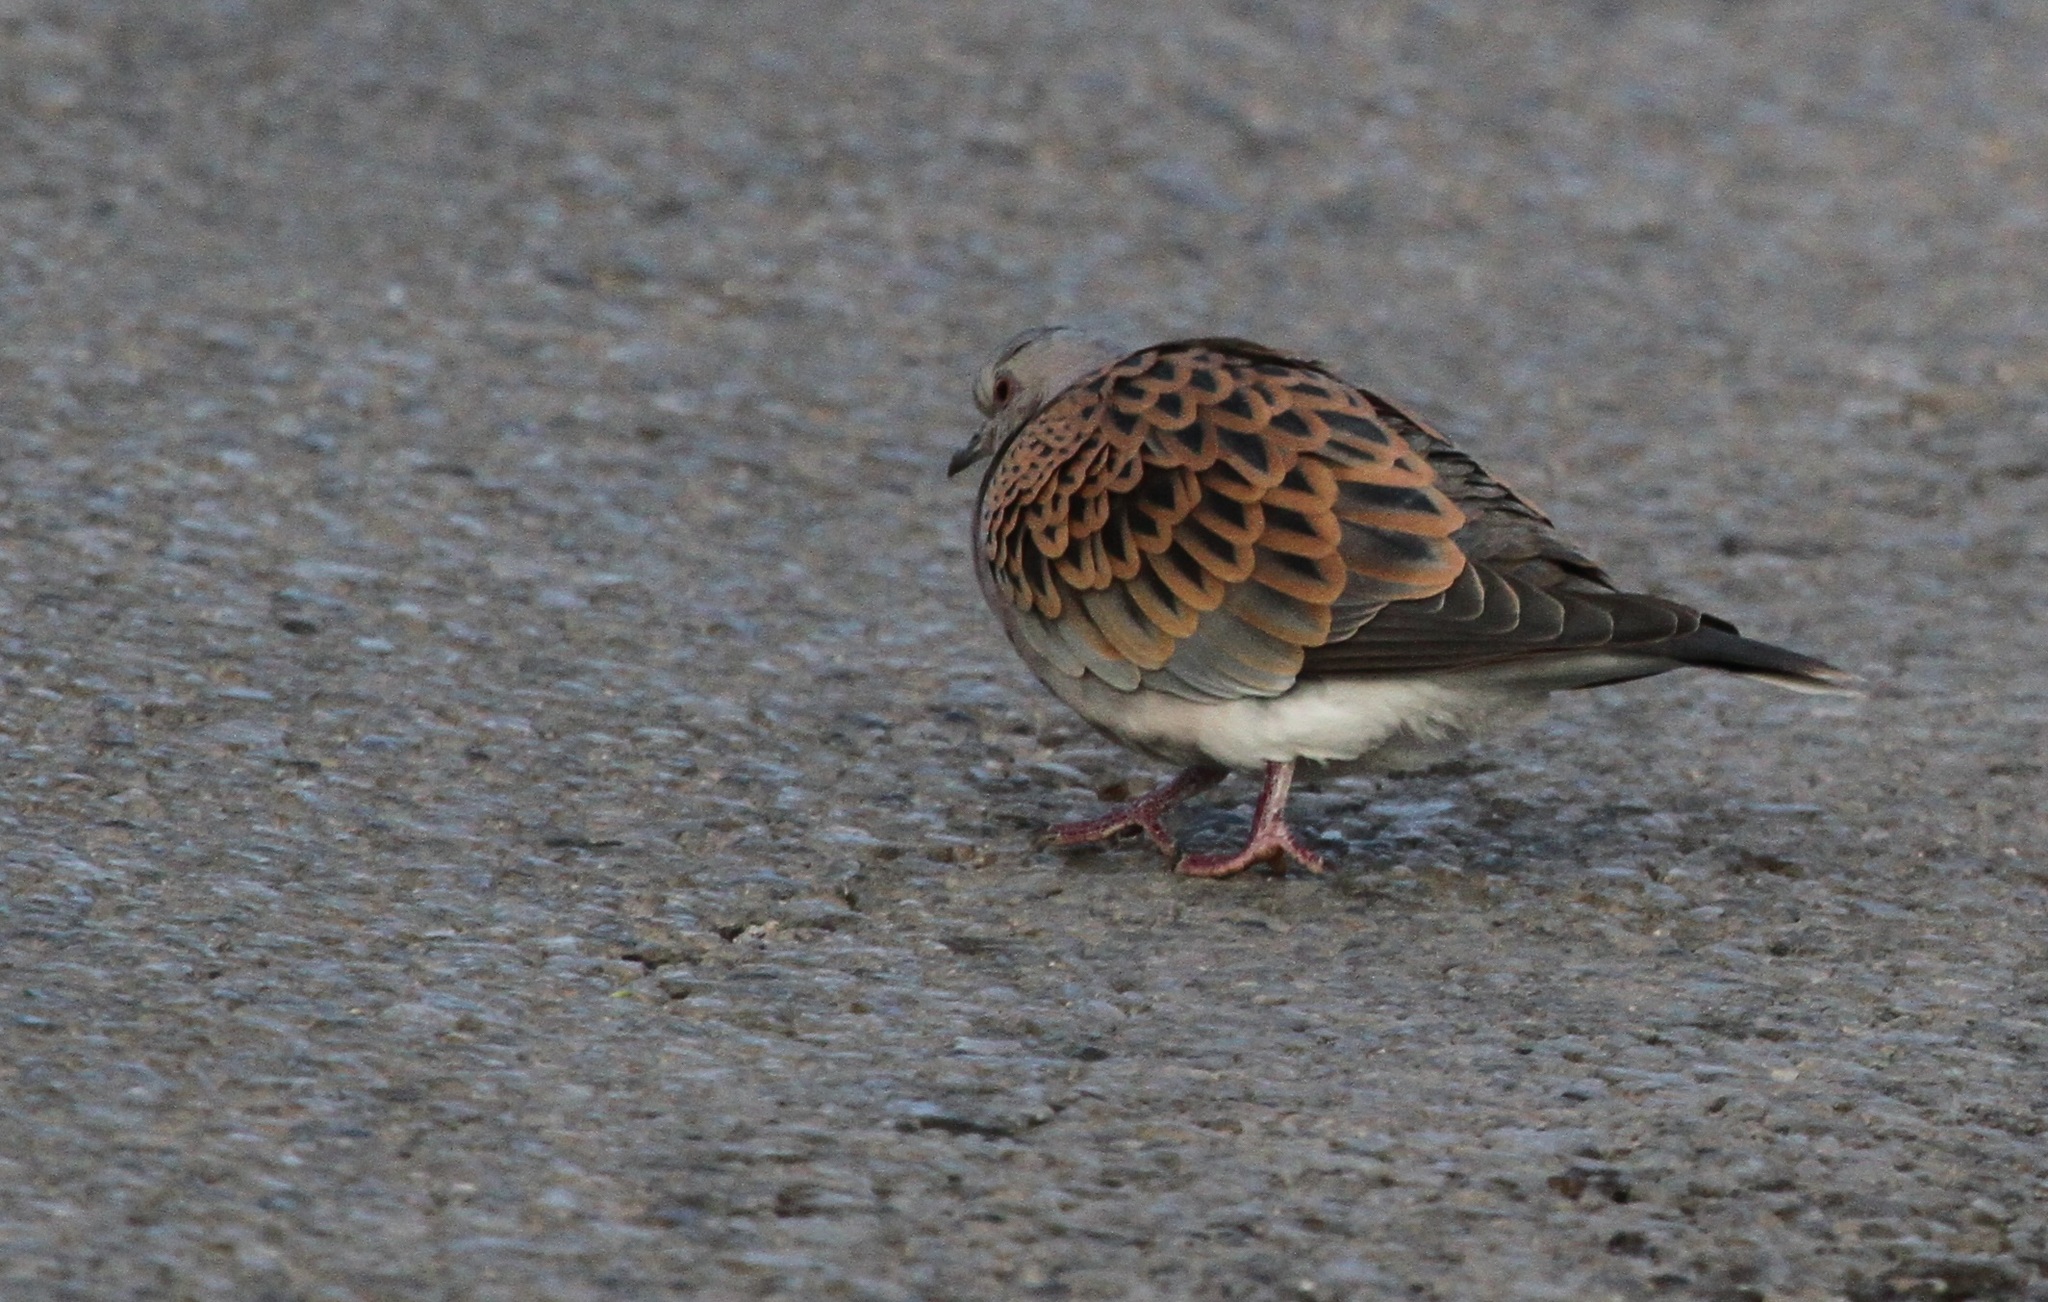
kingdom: Animalia
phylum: Chordata
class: Aves
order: Columbiformes
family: Columbidae
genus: Streptopelia
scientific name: Streptopelia turtur
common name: European turtle dove
